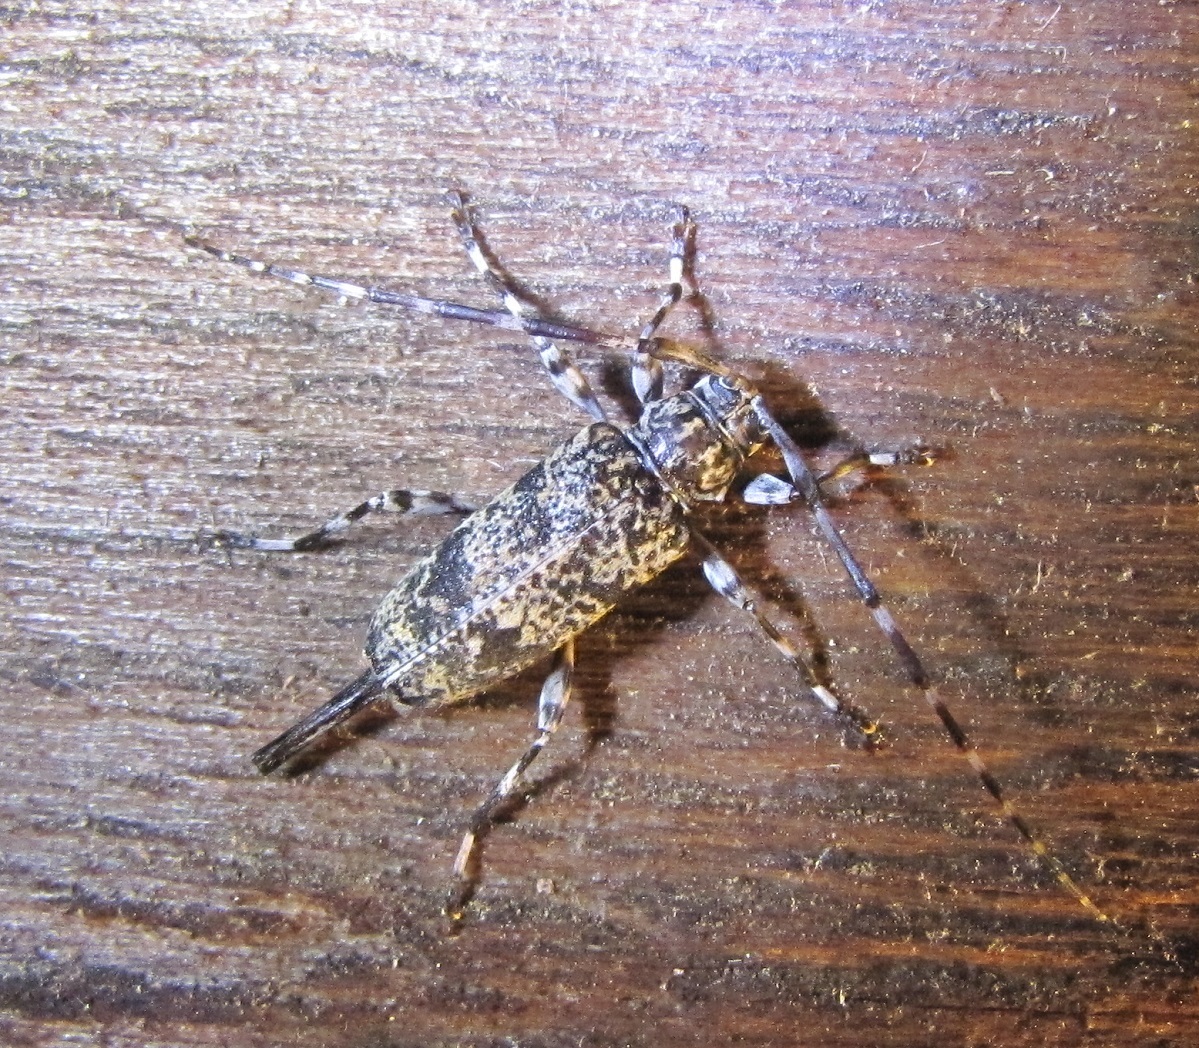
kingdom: Animalia
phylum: Arthropoda
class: Insecta
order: Coleoptera
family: Cerambycidae
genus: Graphisurus
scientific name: Graphisurus fasciatus
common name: Banded graphisurus
